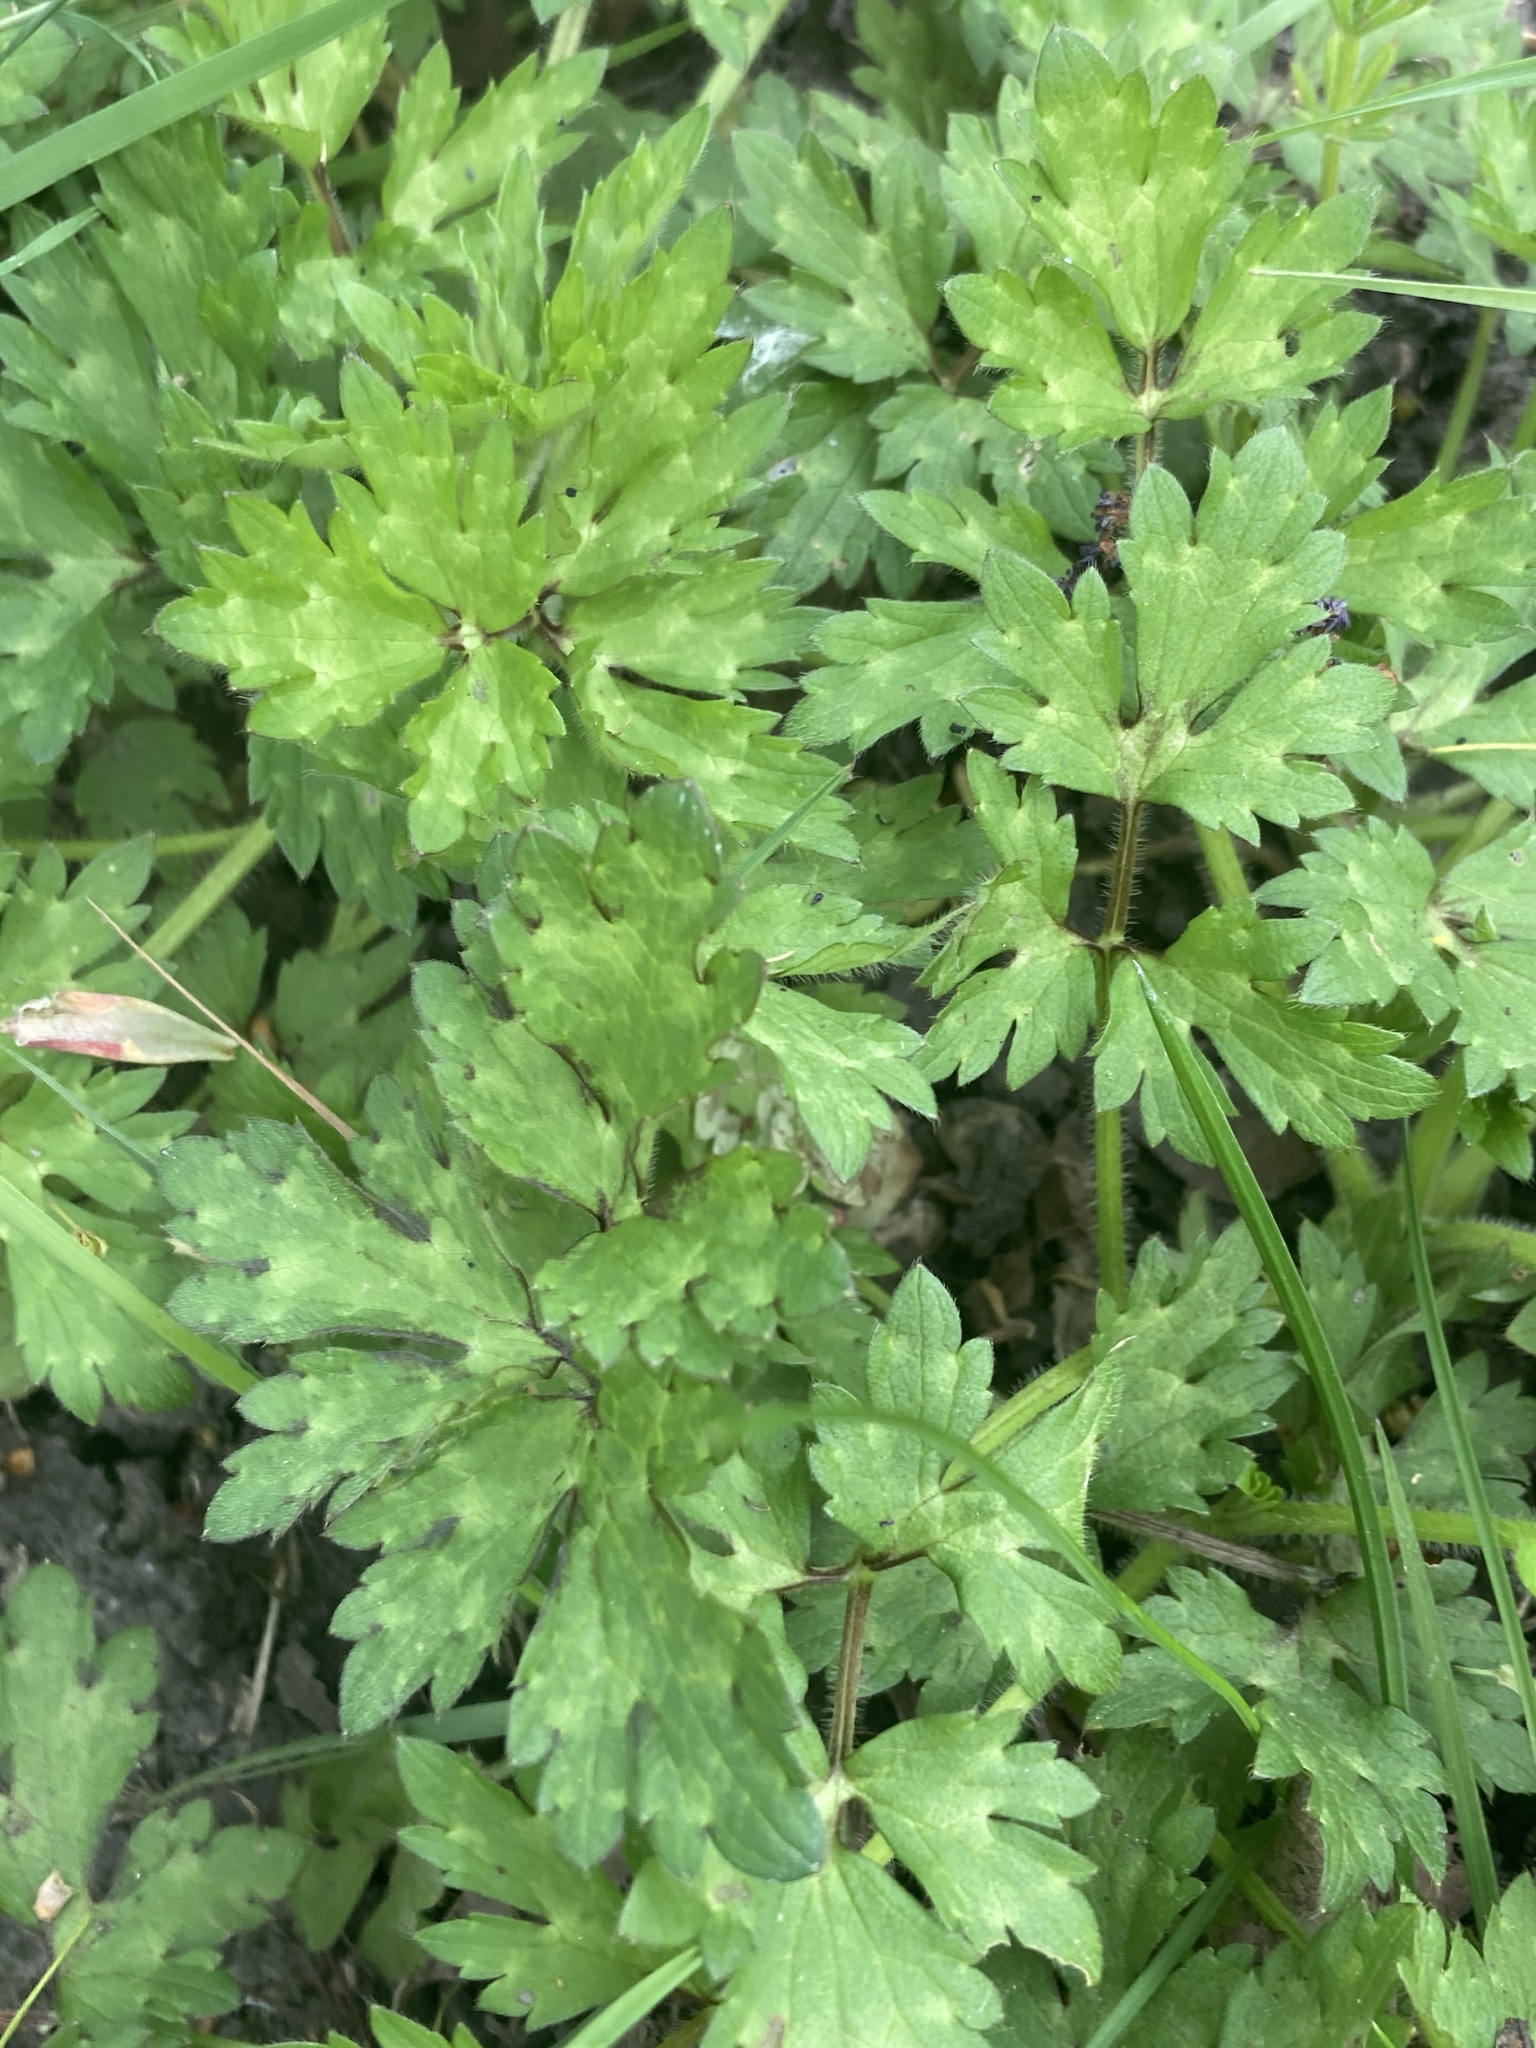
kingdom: Plantae
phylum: Tracheophyta
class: Magnoliopsida
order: Ranunculales
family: Ranunculaceae
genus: Ranunculus
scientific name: Ranunculus repens
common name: Creeping buttercup
